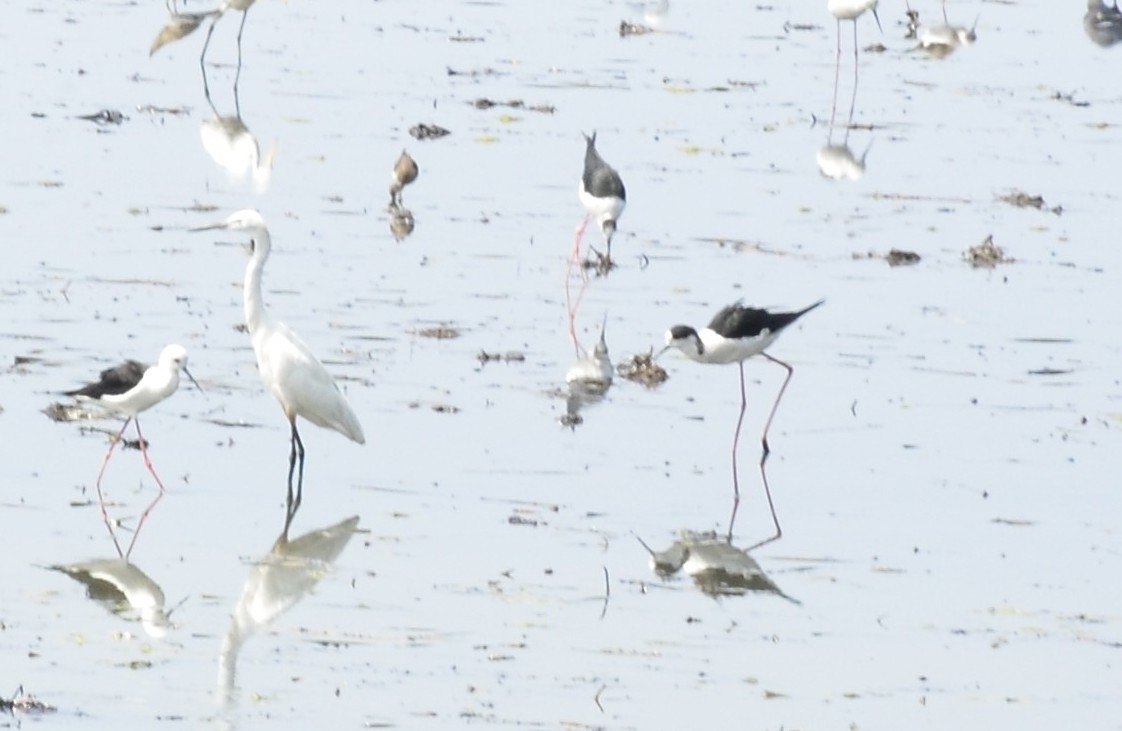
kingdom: Animalia
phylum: Chordata
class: Aves
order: Charadriiformes
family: Recurvirostridae
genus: Himantopus
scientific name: Himantopus himantopus
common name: Black-winged stilt
